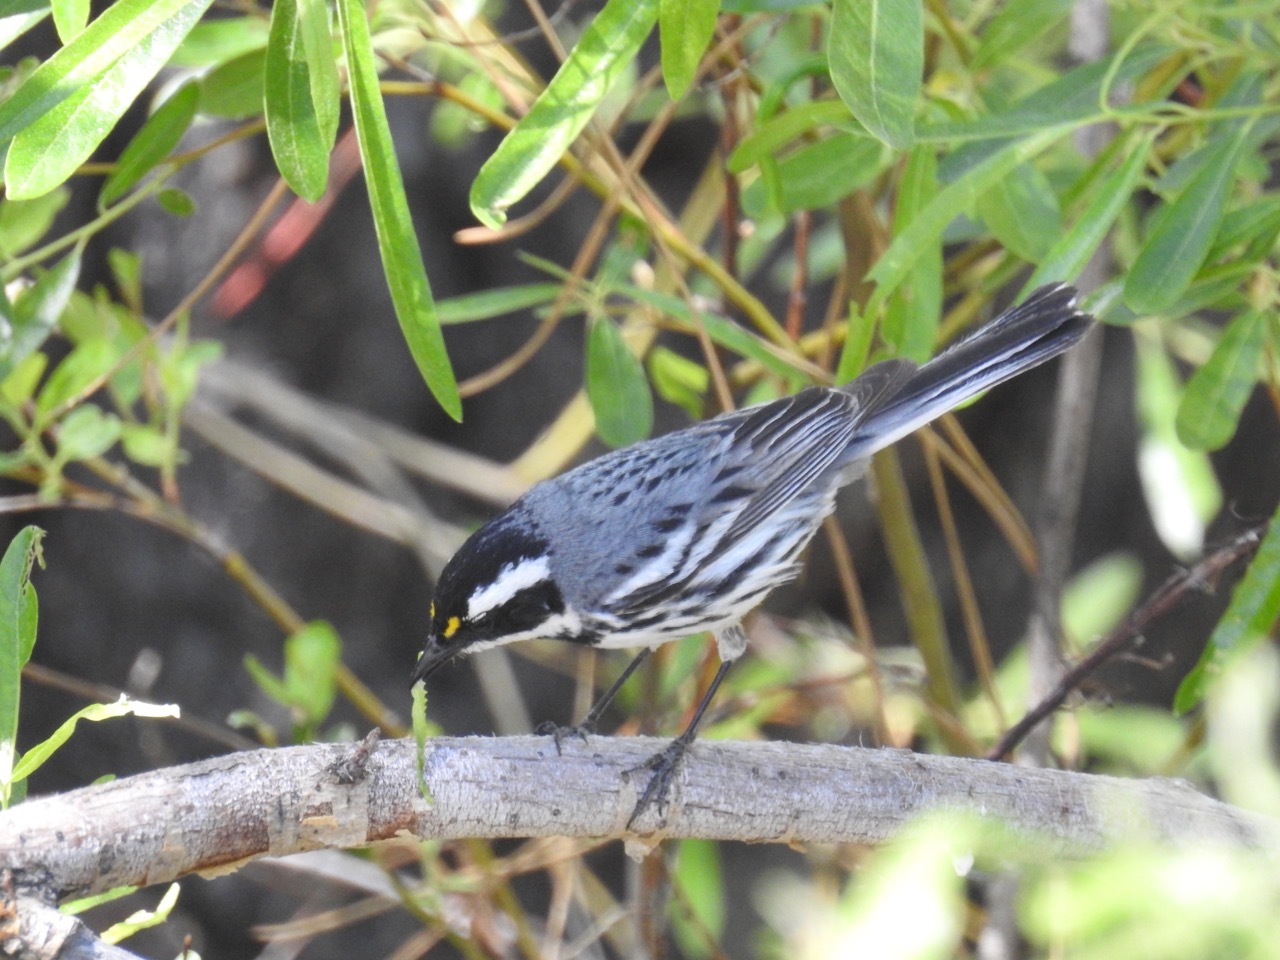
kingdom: Animalia
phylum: Chordata
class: Aves
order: Passeriformes
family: Parulidae
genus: Setophaga
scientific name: Setophaga nigrescens
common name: Black-throated gray warbler
